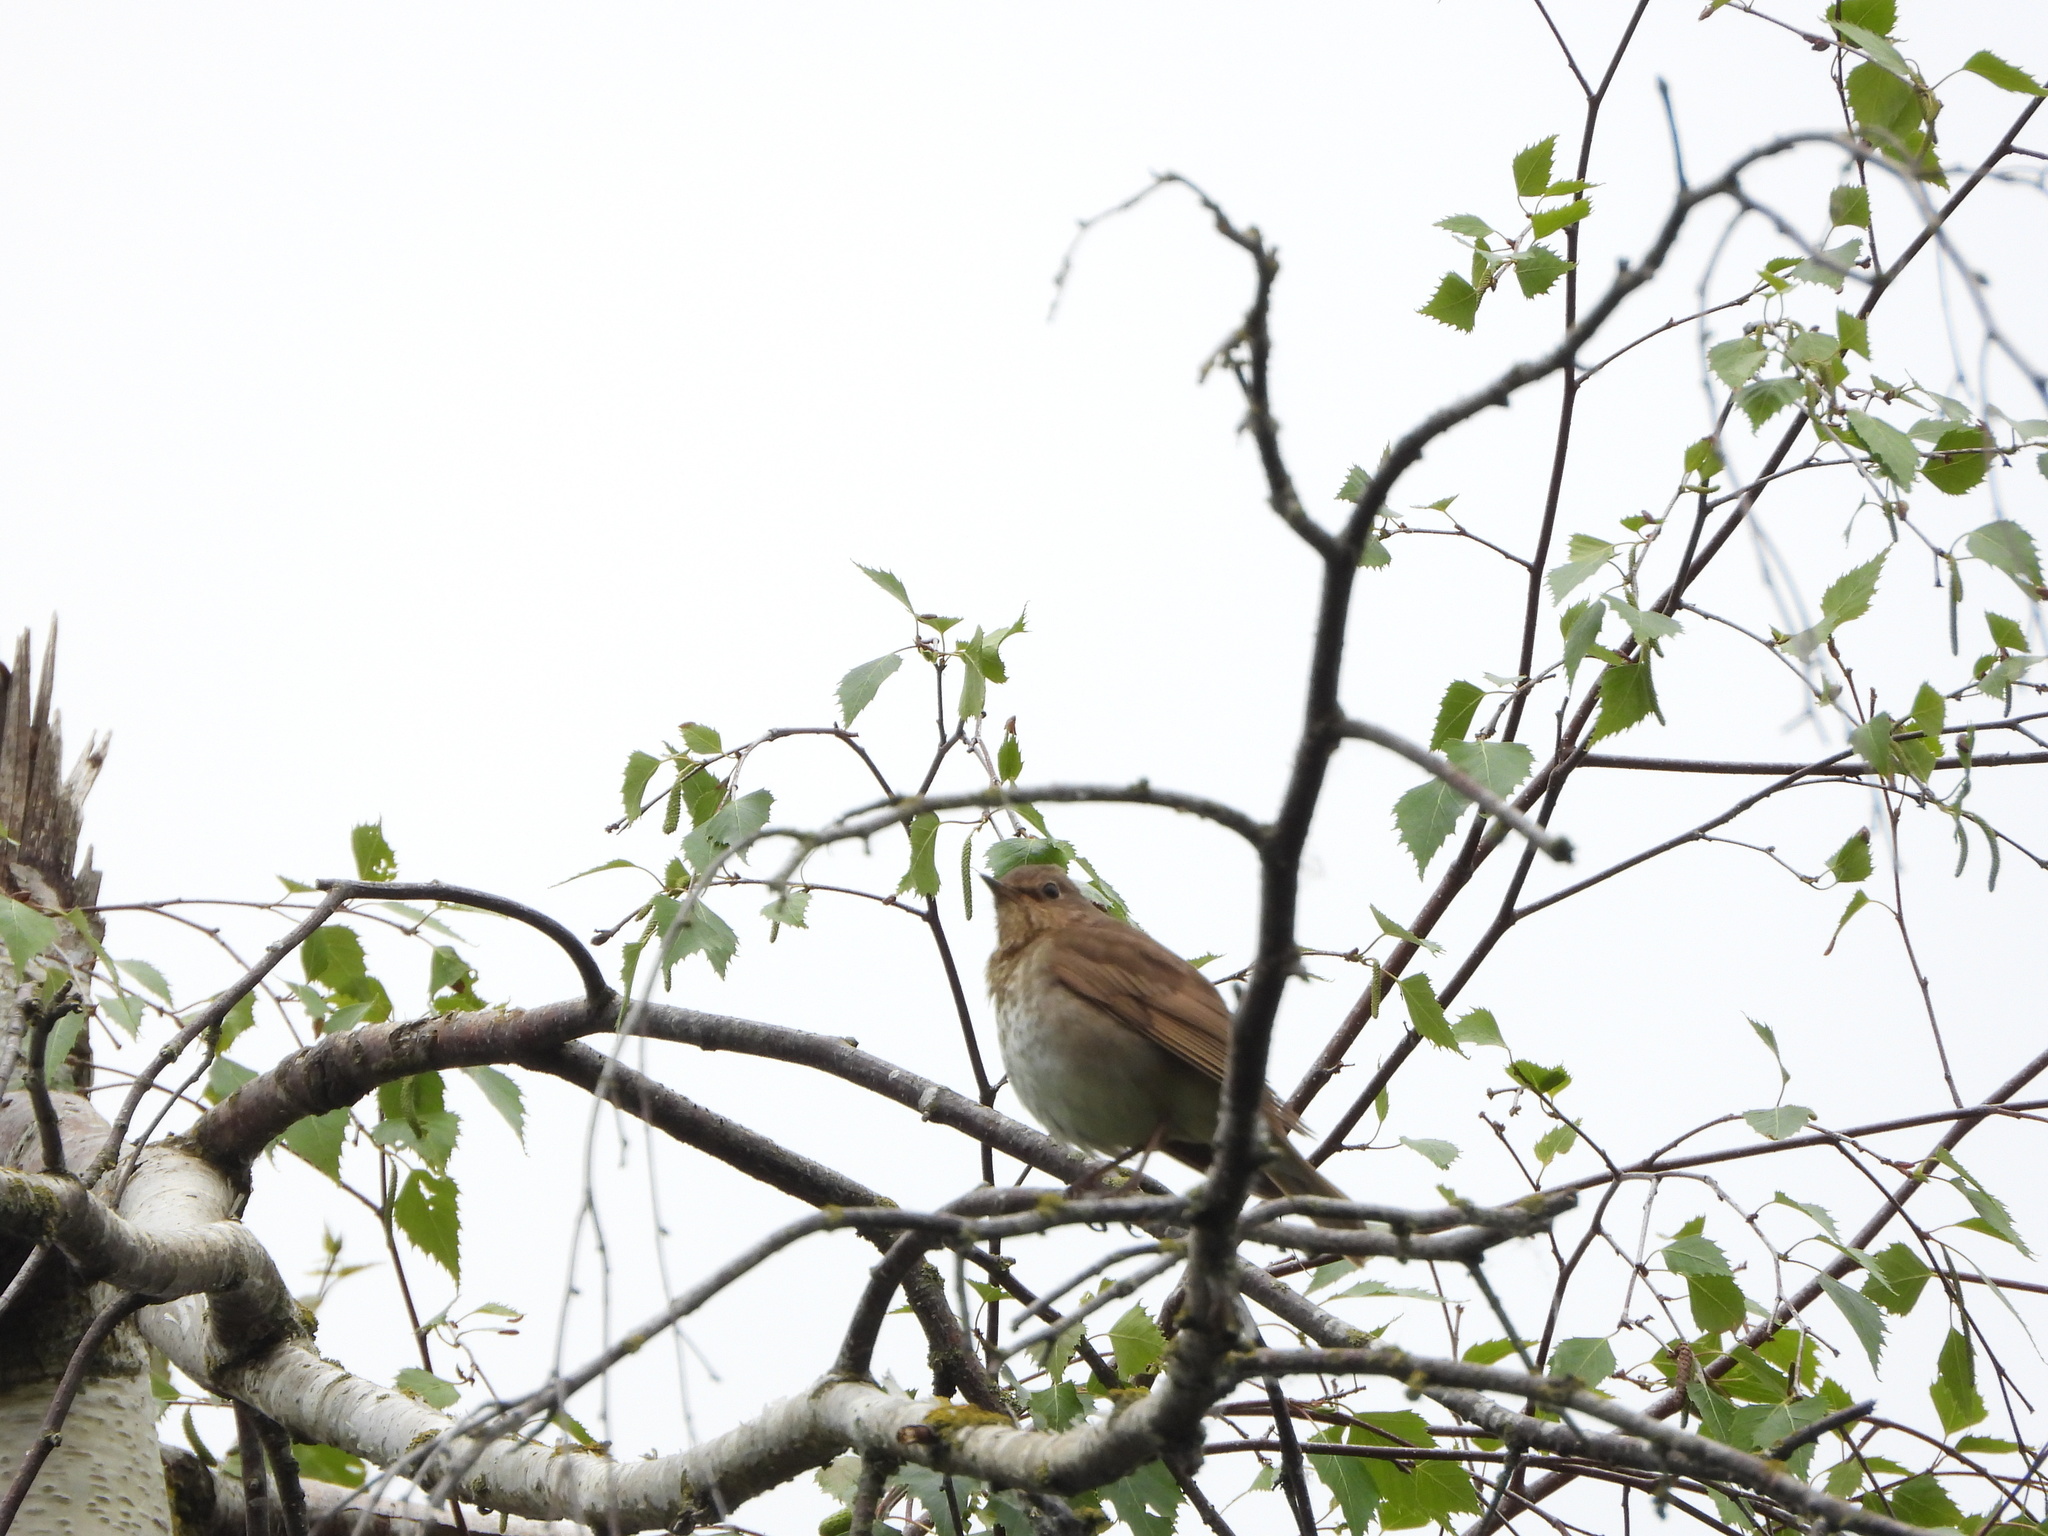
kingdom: Animalia
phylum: Chordata
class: Aves
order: Passeriformes
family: Turdidae
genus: Catharus
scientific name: Catharus ustulatus
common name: Swainson's thrush
